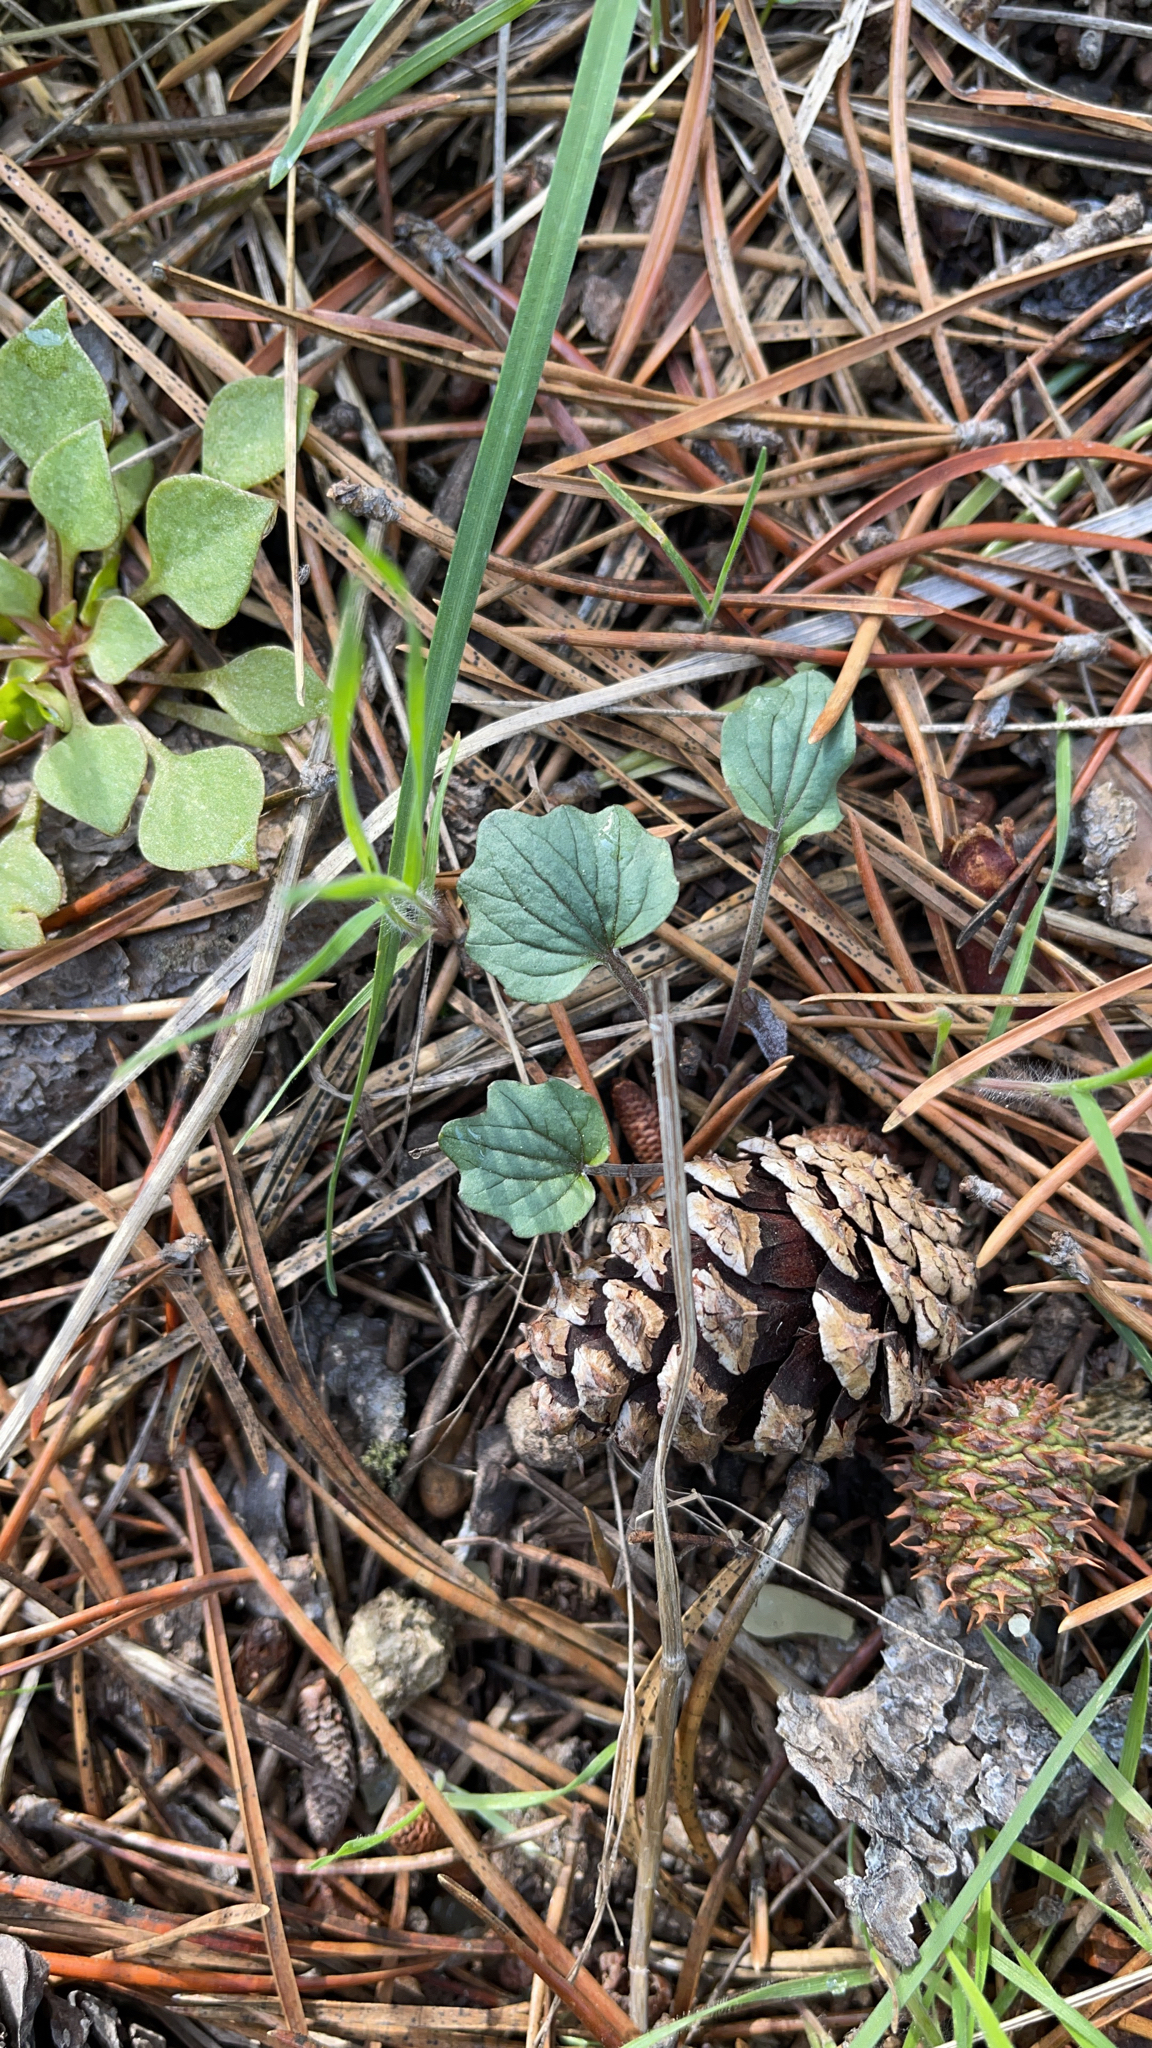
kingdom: Plantae
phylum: Tracheophyta
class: Magnoliopsida
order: Malpighiales
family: Violaceae
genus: Viola
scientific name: Viola purpurea
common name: Pine violet
